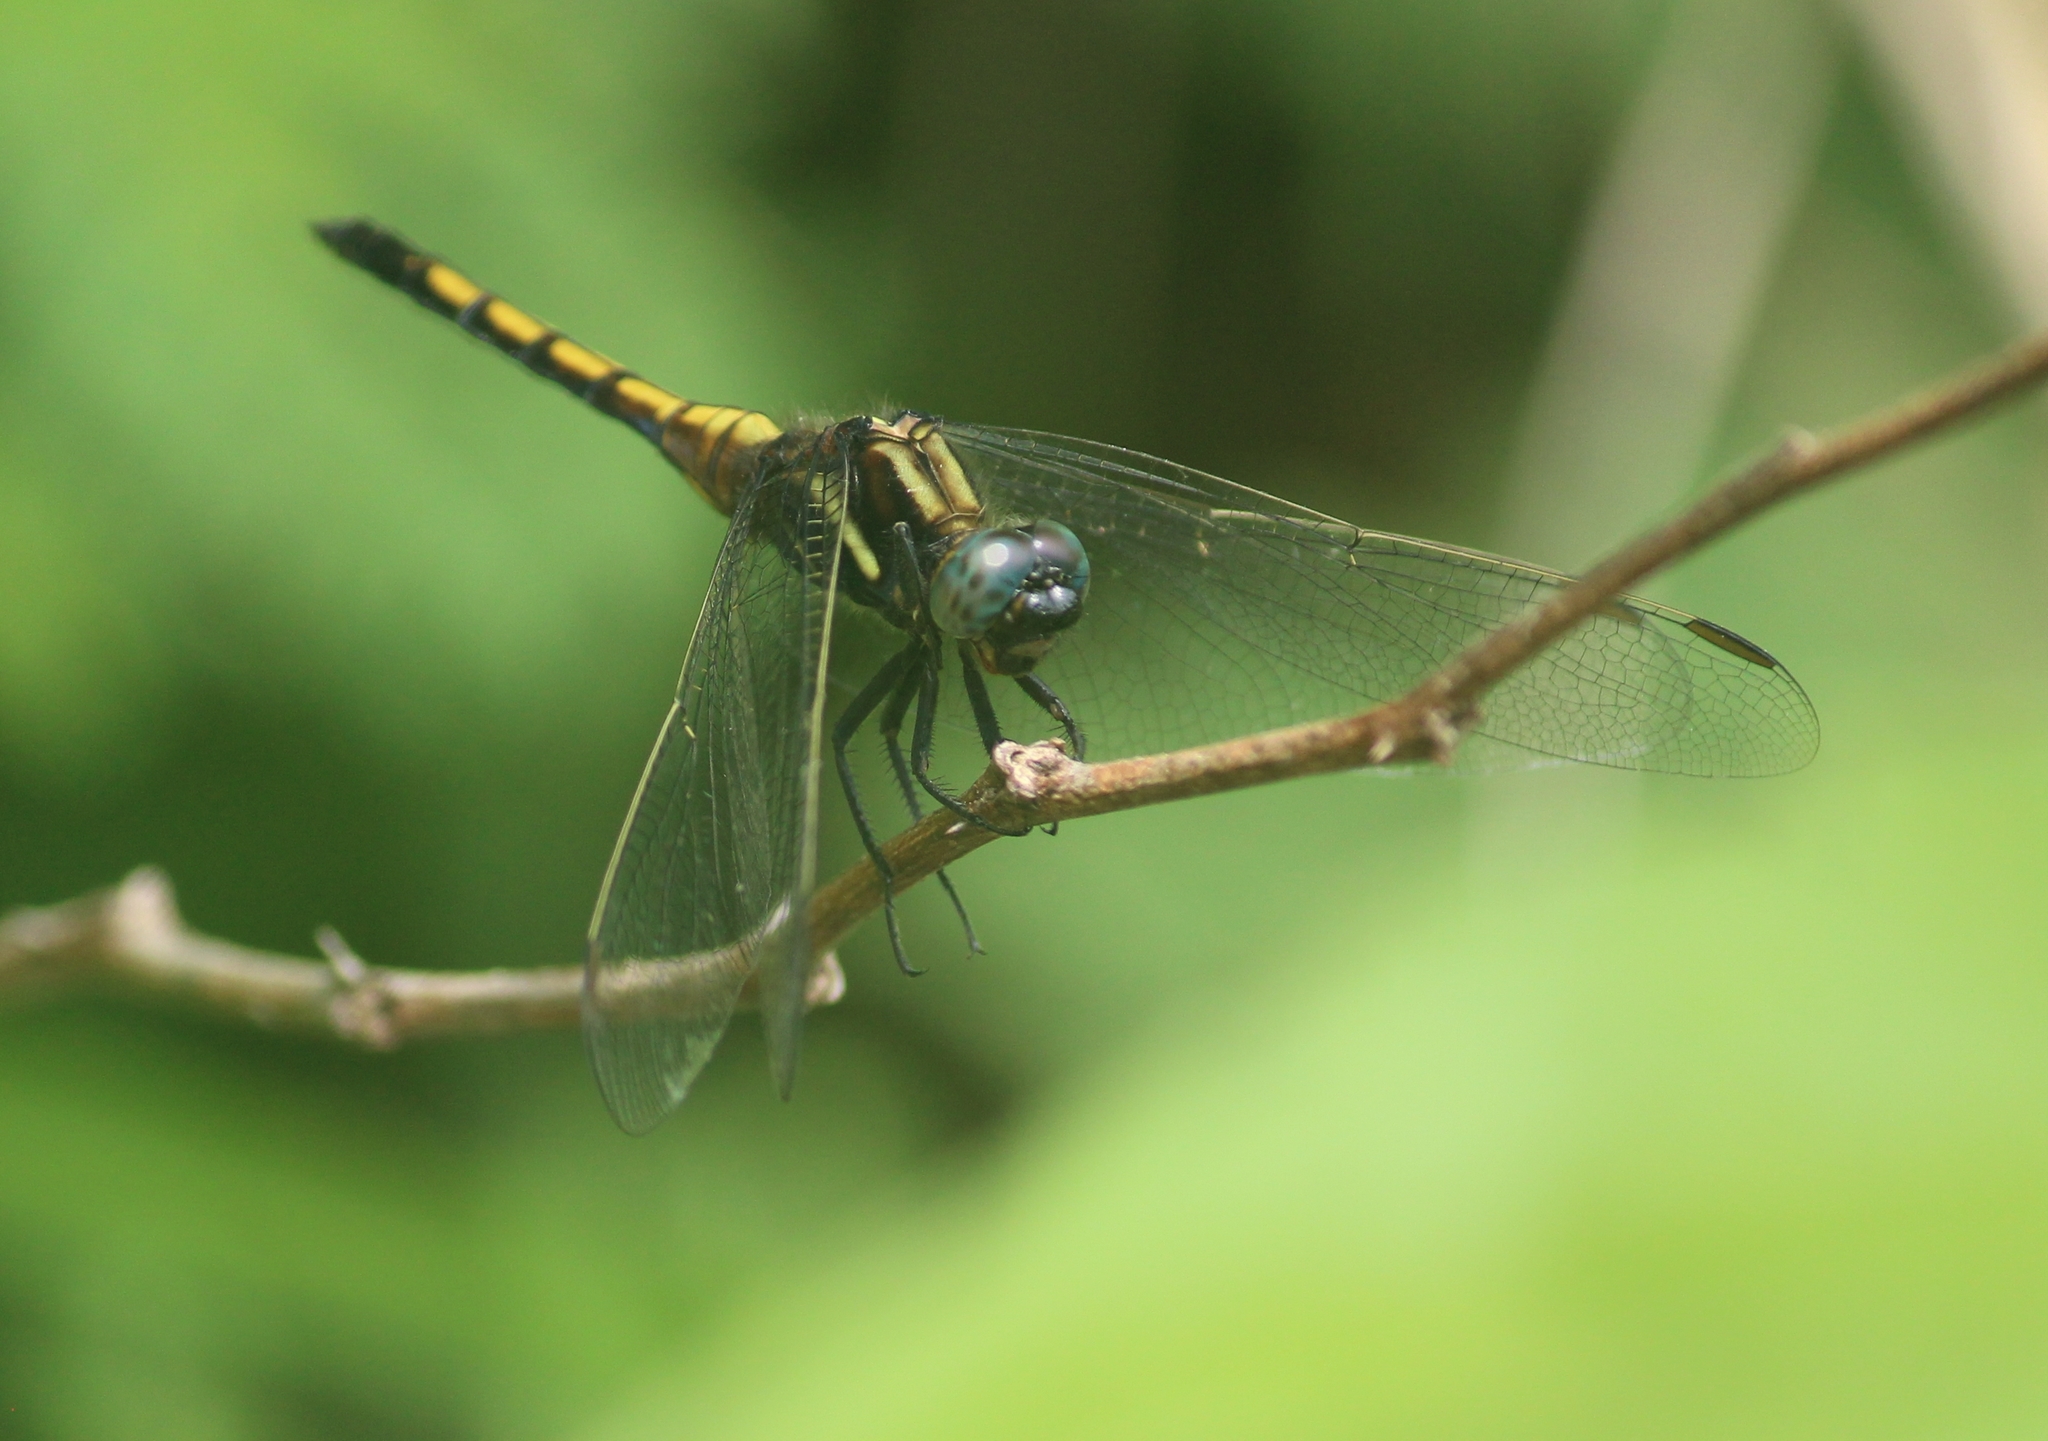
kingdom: Animalia
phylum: Arthropoda
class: Insecta
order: Odonata
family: Libellulidae
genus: Orthetrum
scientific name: Orthetrum glaucum
